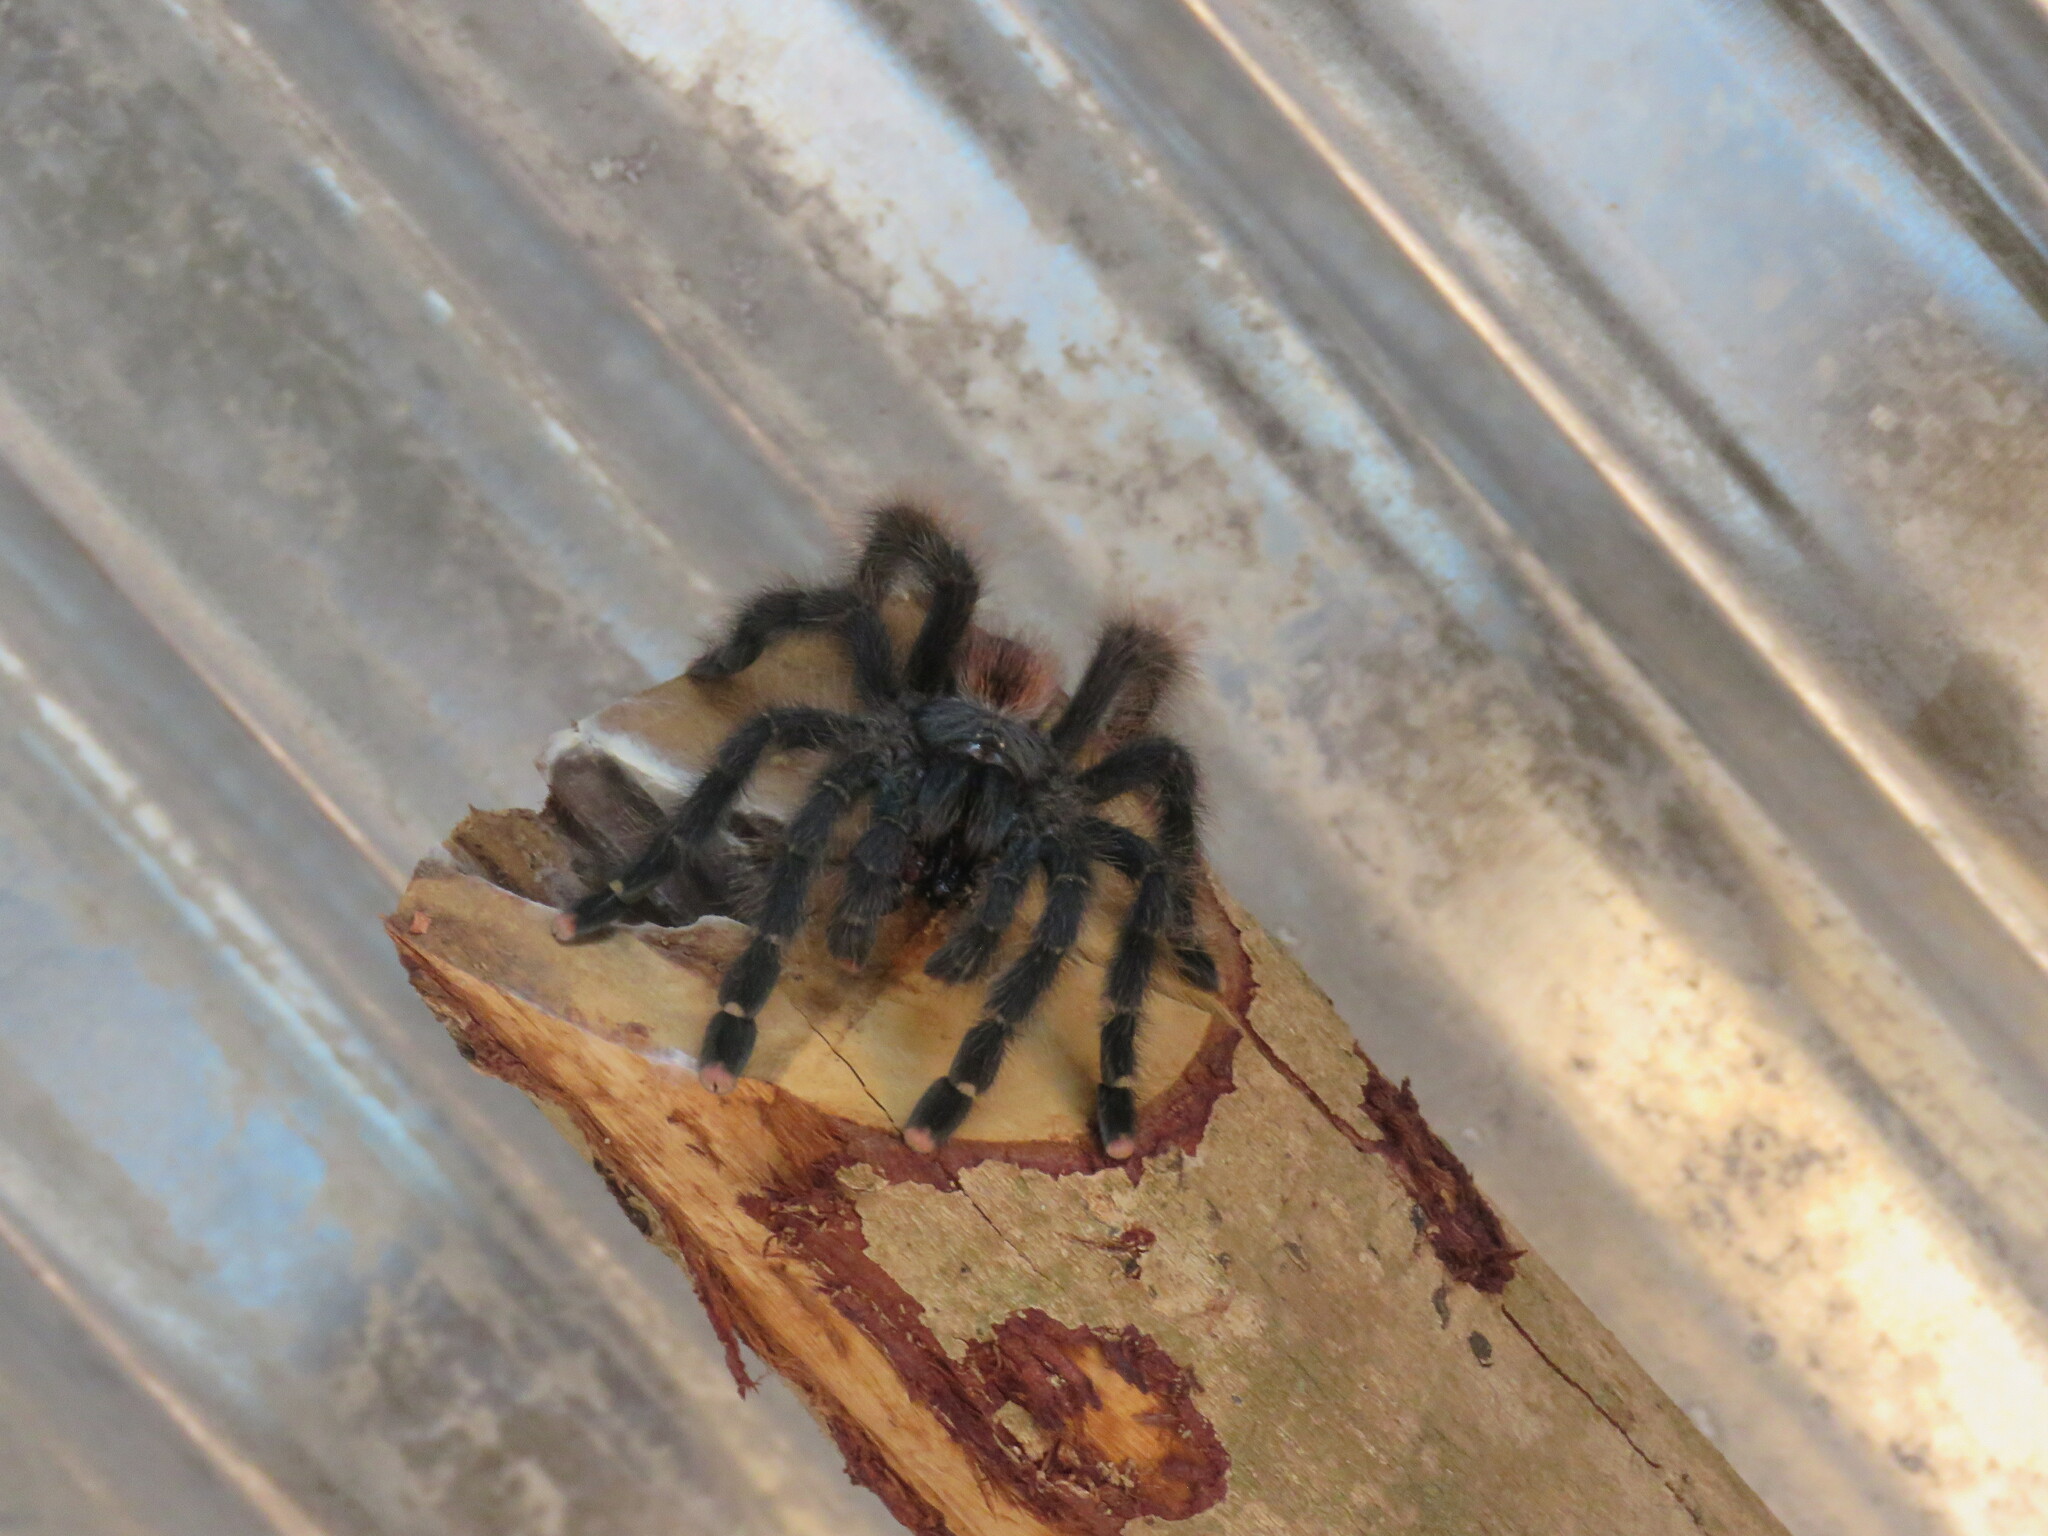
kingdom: Animalia
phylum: Arthropoda
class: Arachnida
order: Araneae
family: Theraphosidae
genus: Avicularia
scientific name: Avicularia avicularia
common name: Tarantula spiders
